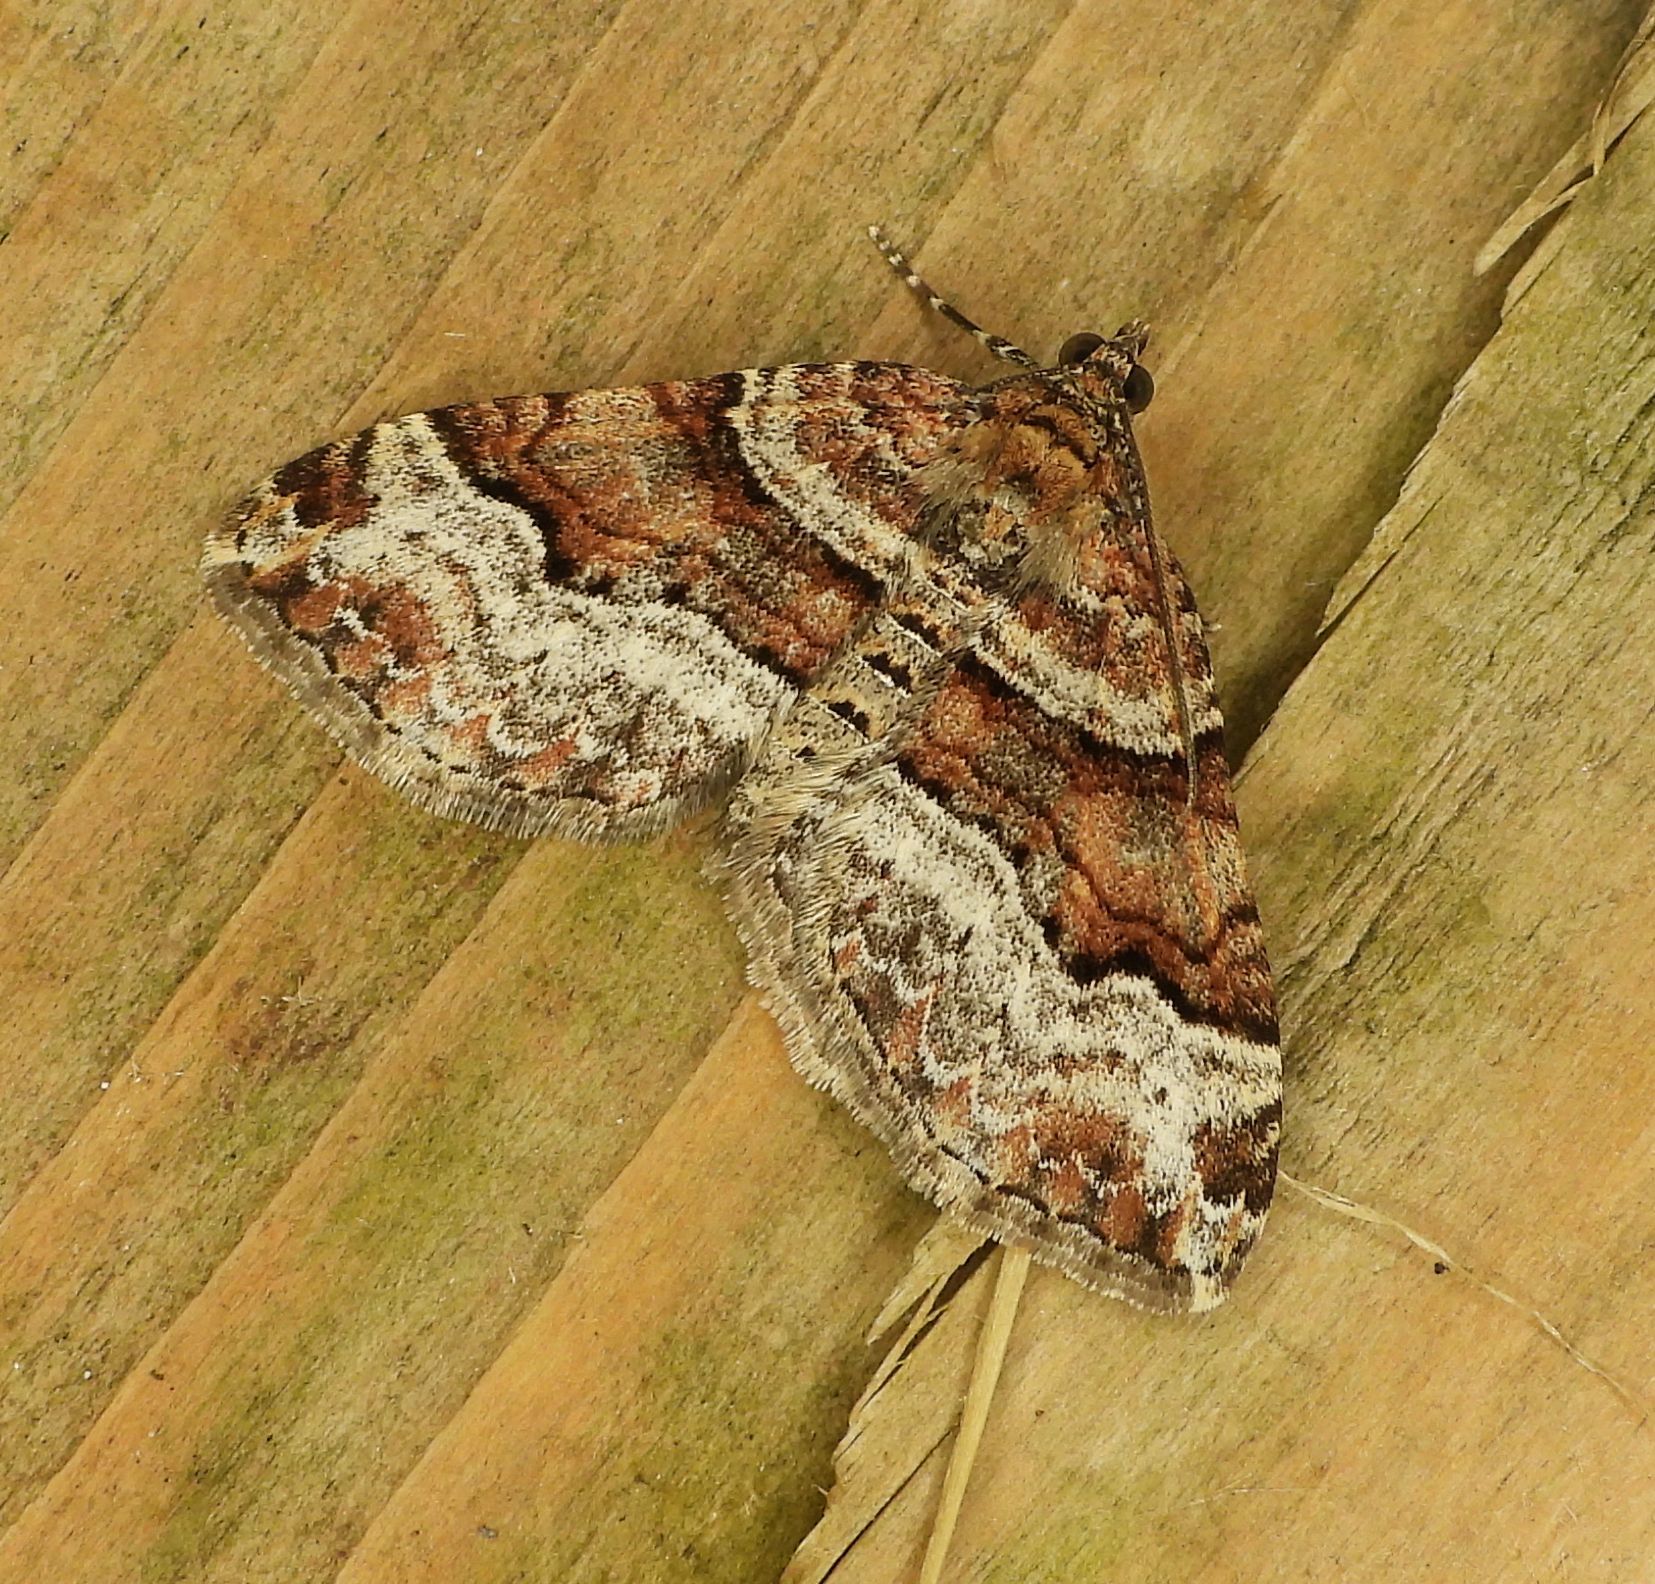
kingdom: Animalia
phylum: Arthropoda
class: Insecta
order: Lepidoptera
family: Geometridae
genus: Xanthorhoe
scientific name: Xanthorhoe lacustrata
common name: Toothed brown carpet
